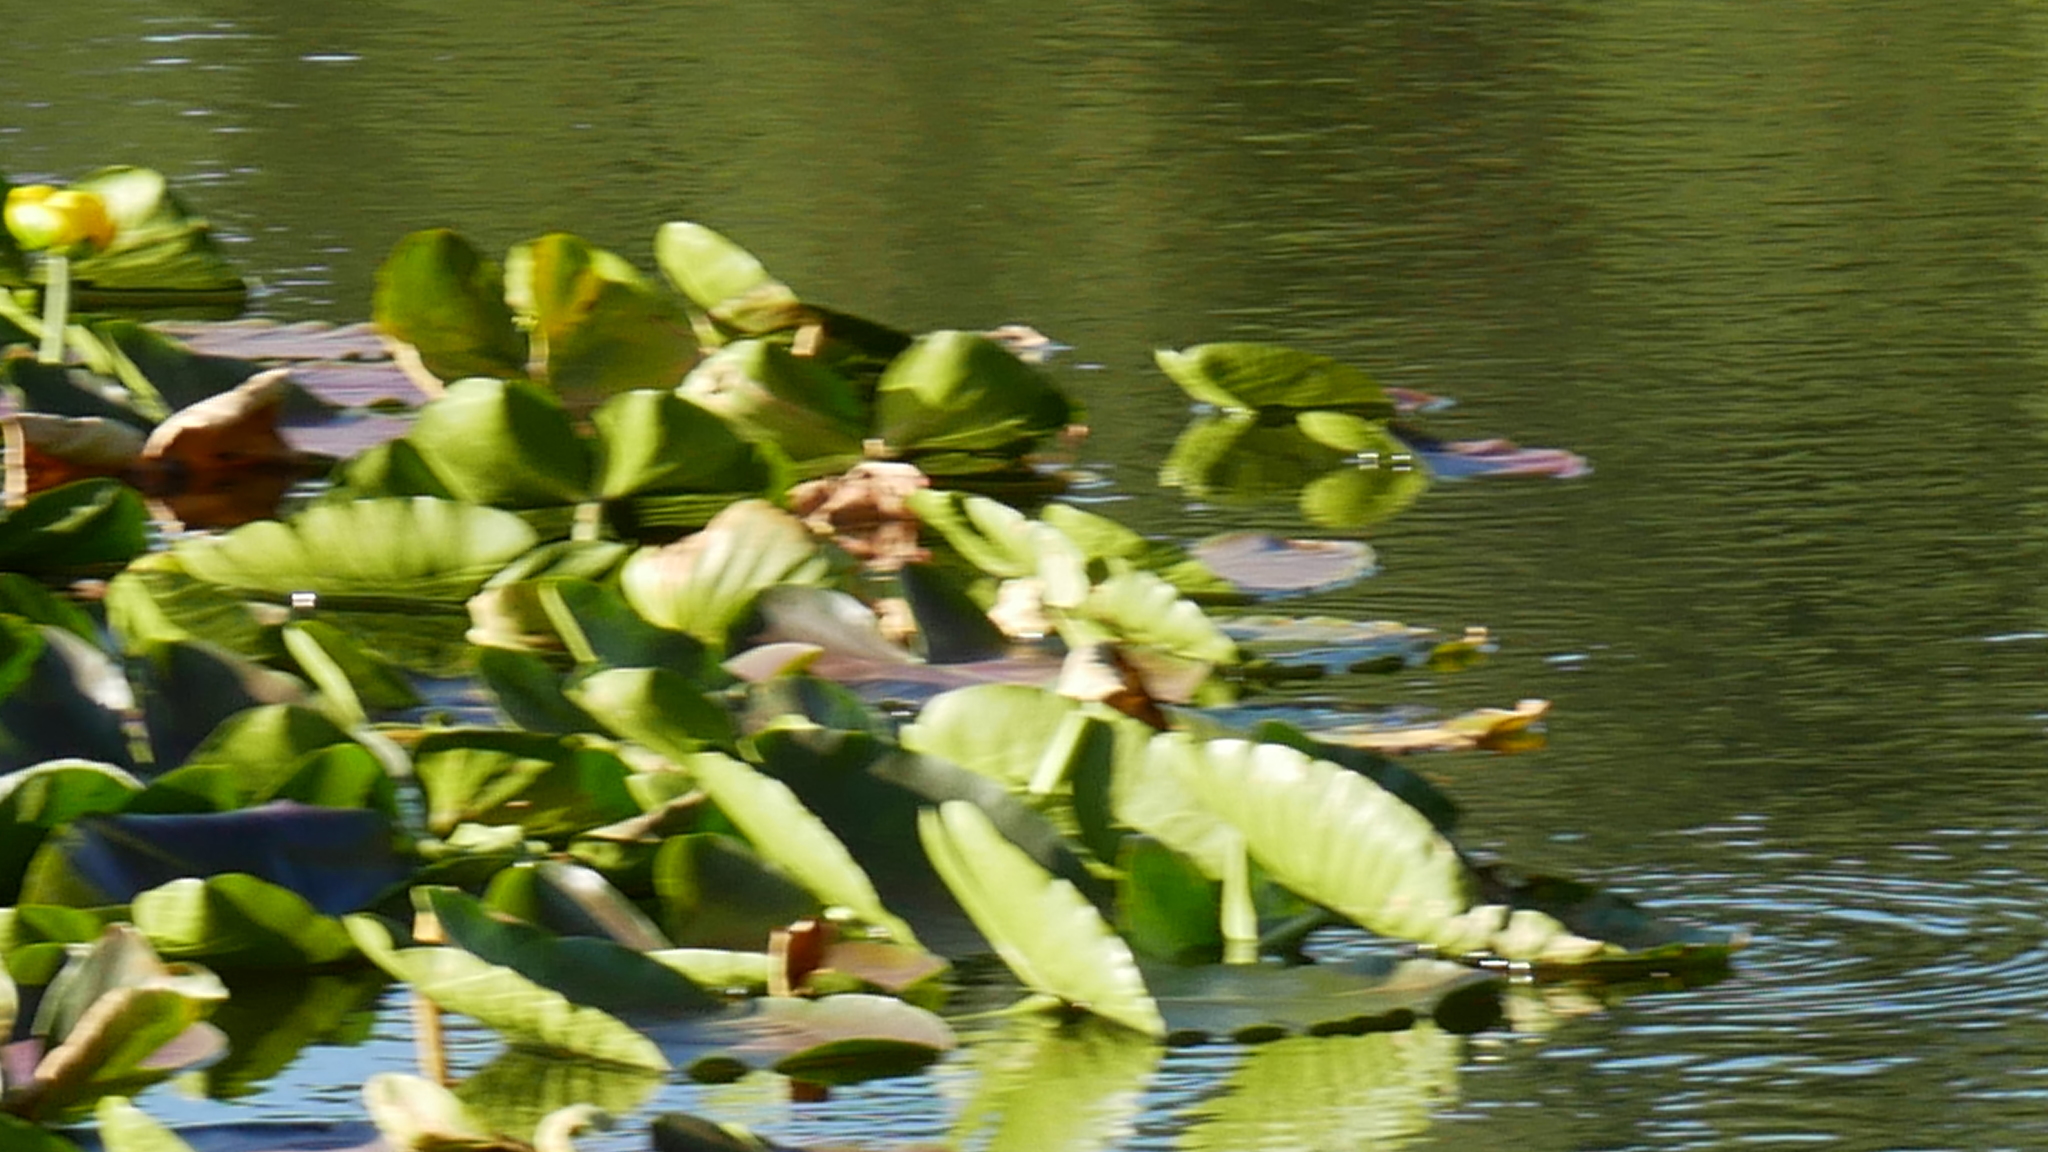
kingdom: Plantae
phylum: Tracheophyta
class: Magnoliopsida
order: Nymphaeales
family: Nymphaeaceae
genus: Nuphar
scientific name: Nuphar polysepala
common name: Rocky mountain cow-lily
